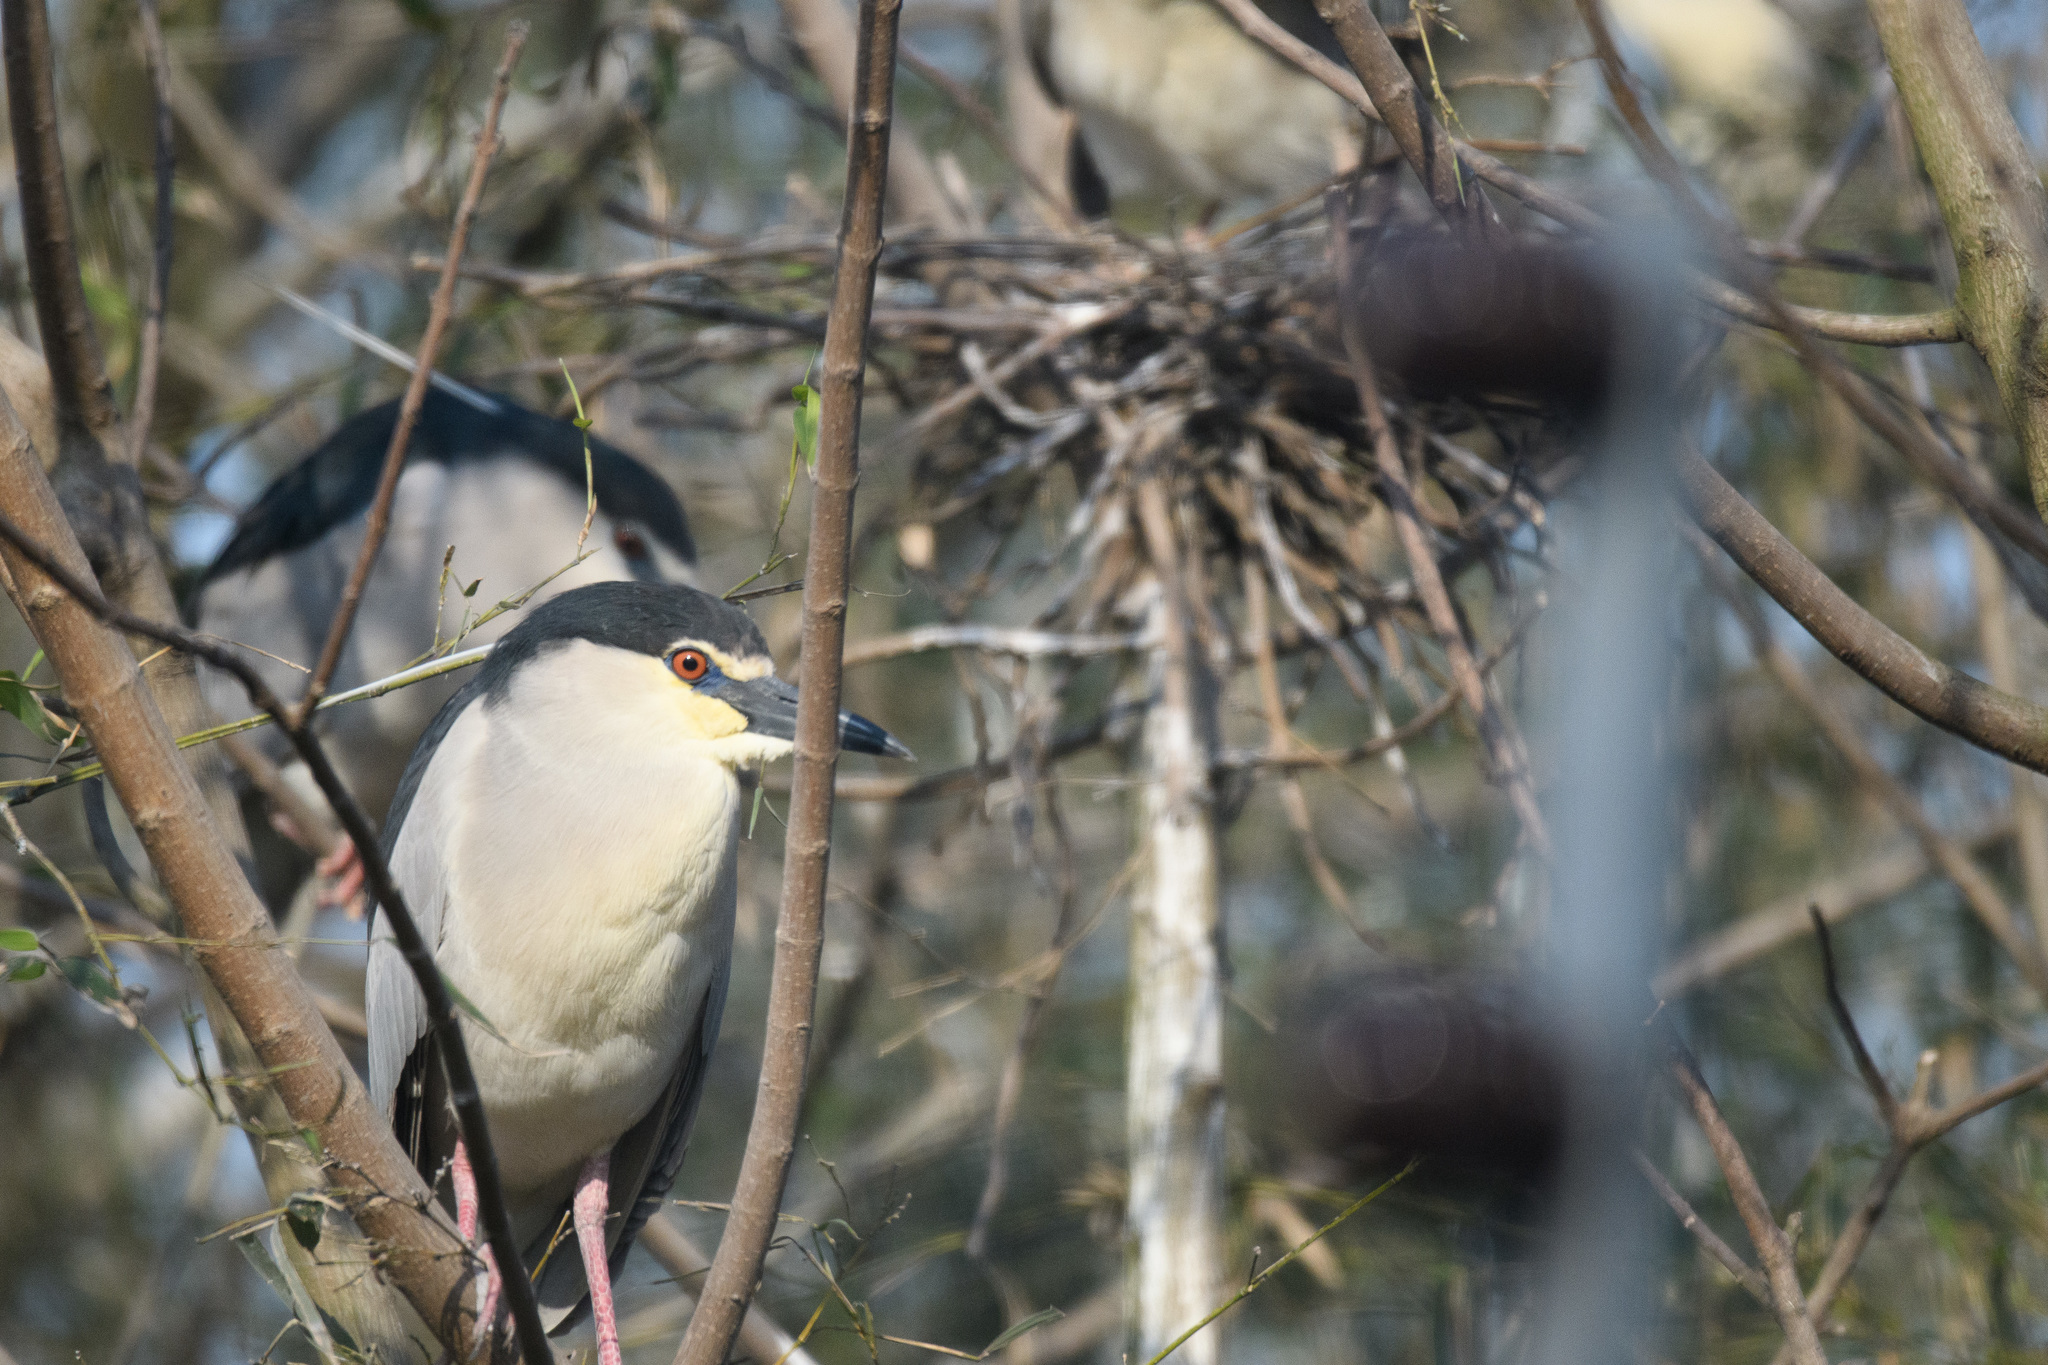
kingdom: Animalia
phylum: Chordata
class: Aves
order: Pelecaniformes
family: Ardeidae
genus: Nycticorax
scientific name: Nycticorax nycticorax
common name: Black-crowned night heron
